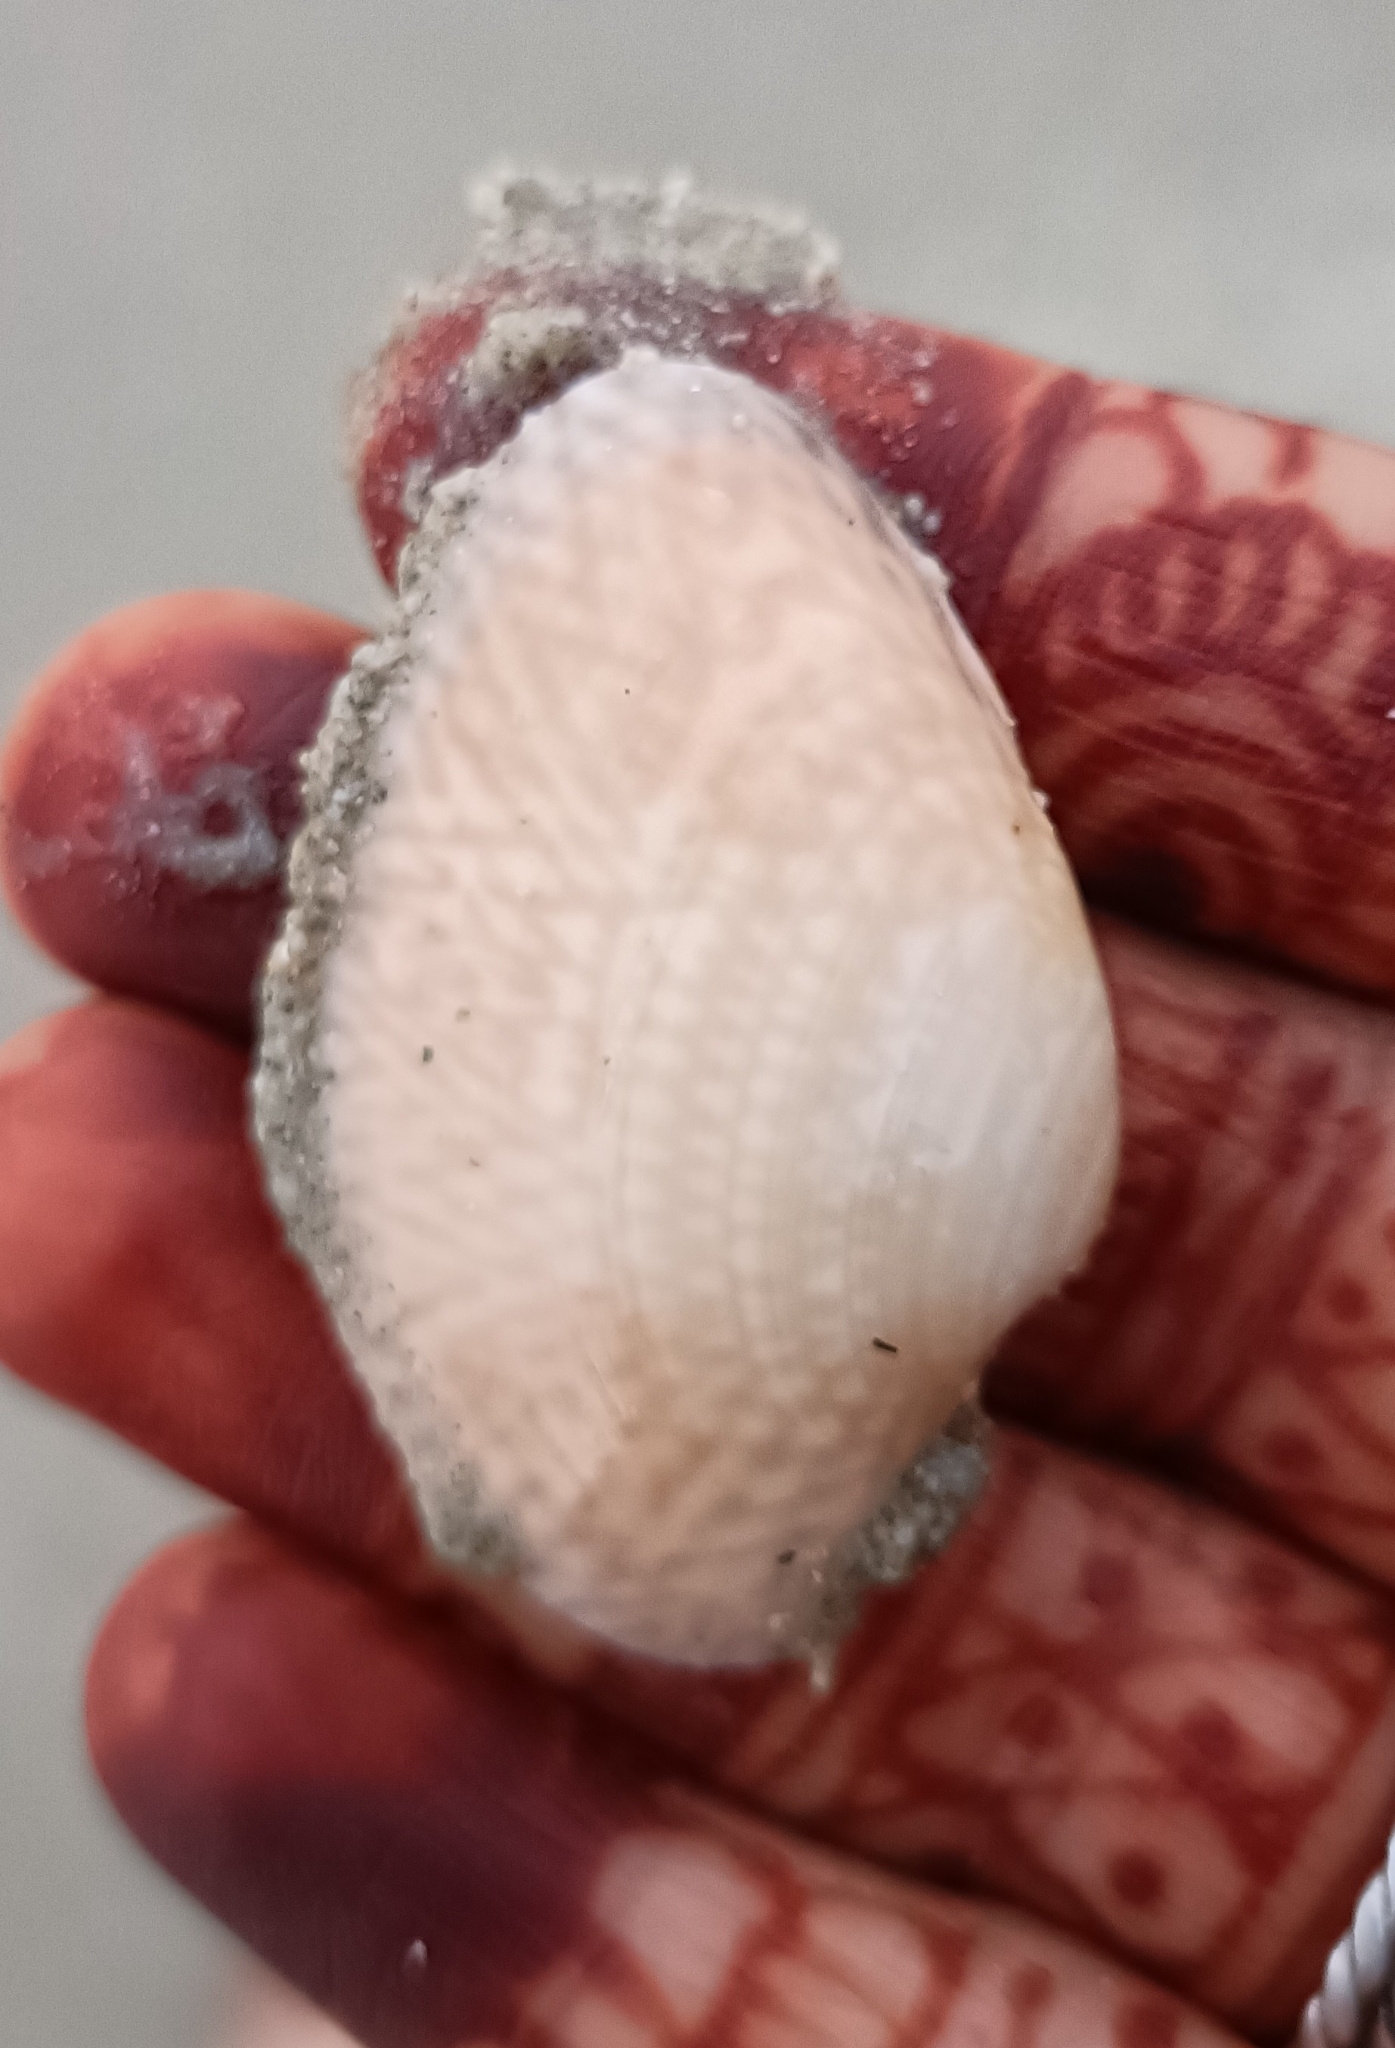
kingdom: Animalia
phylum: Mollusca
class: Bivalvia
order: Venerida
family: Veneridae
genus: Paratapes
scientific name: Paratapes textilis
